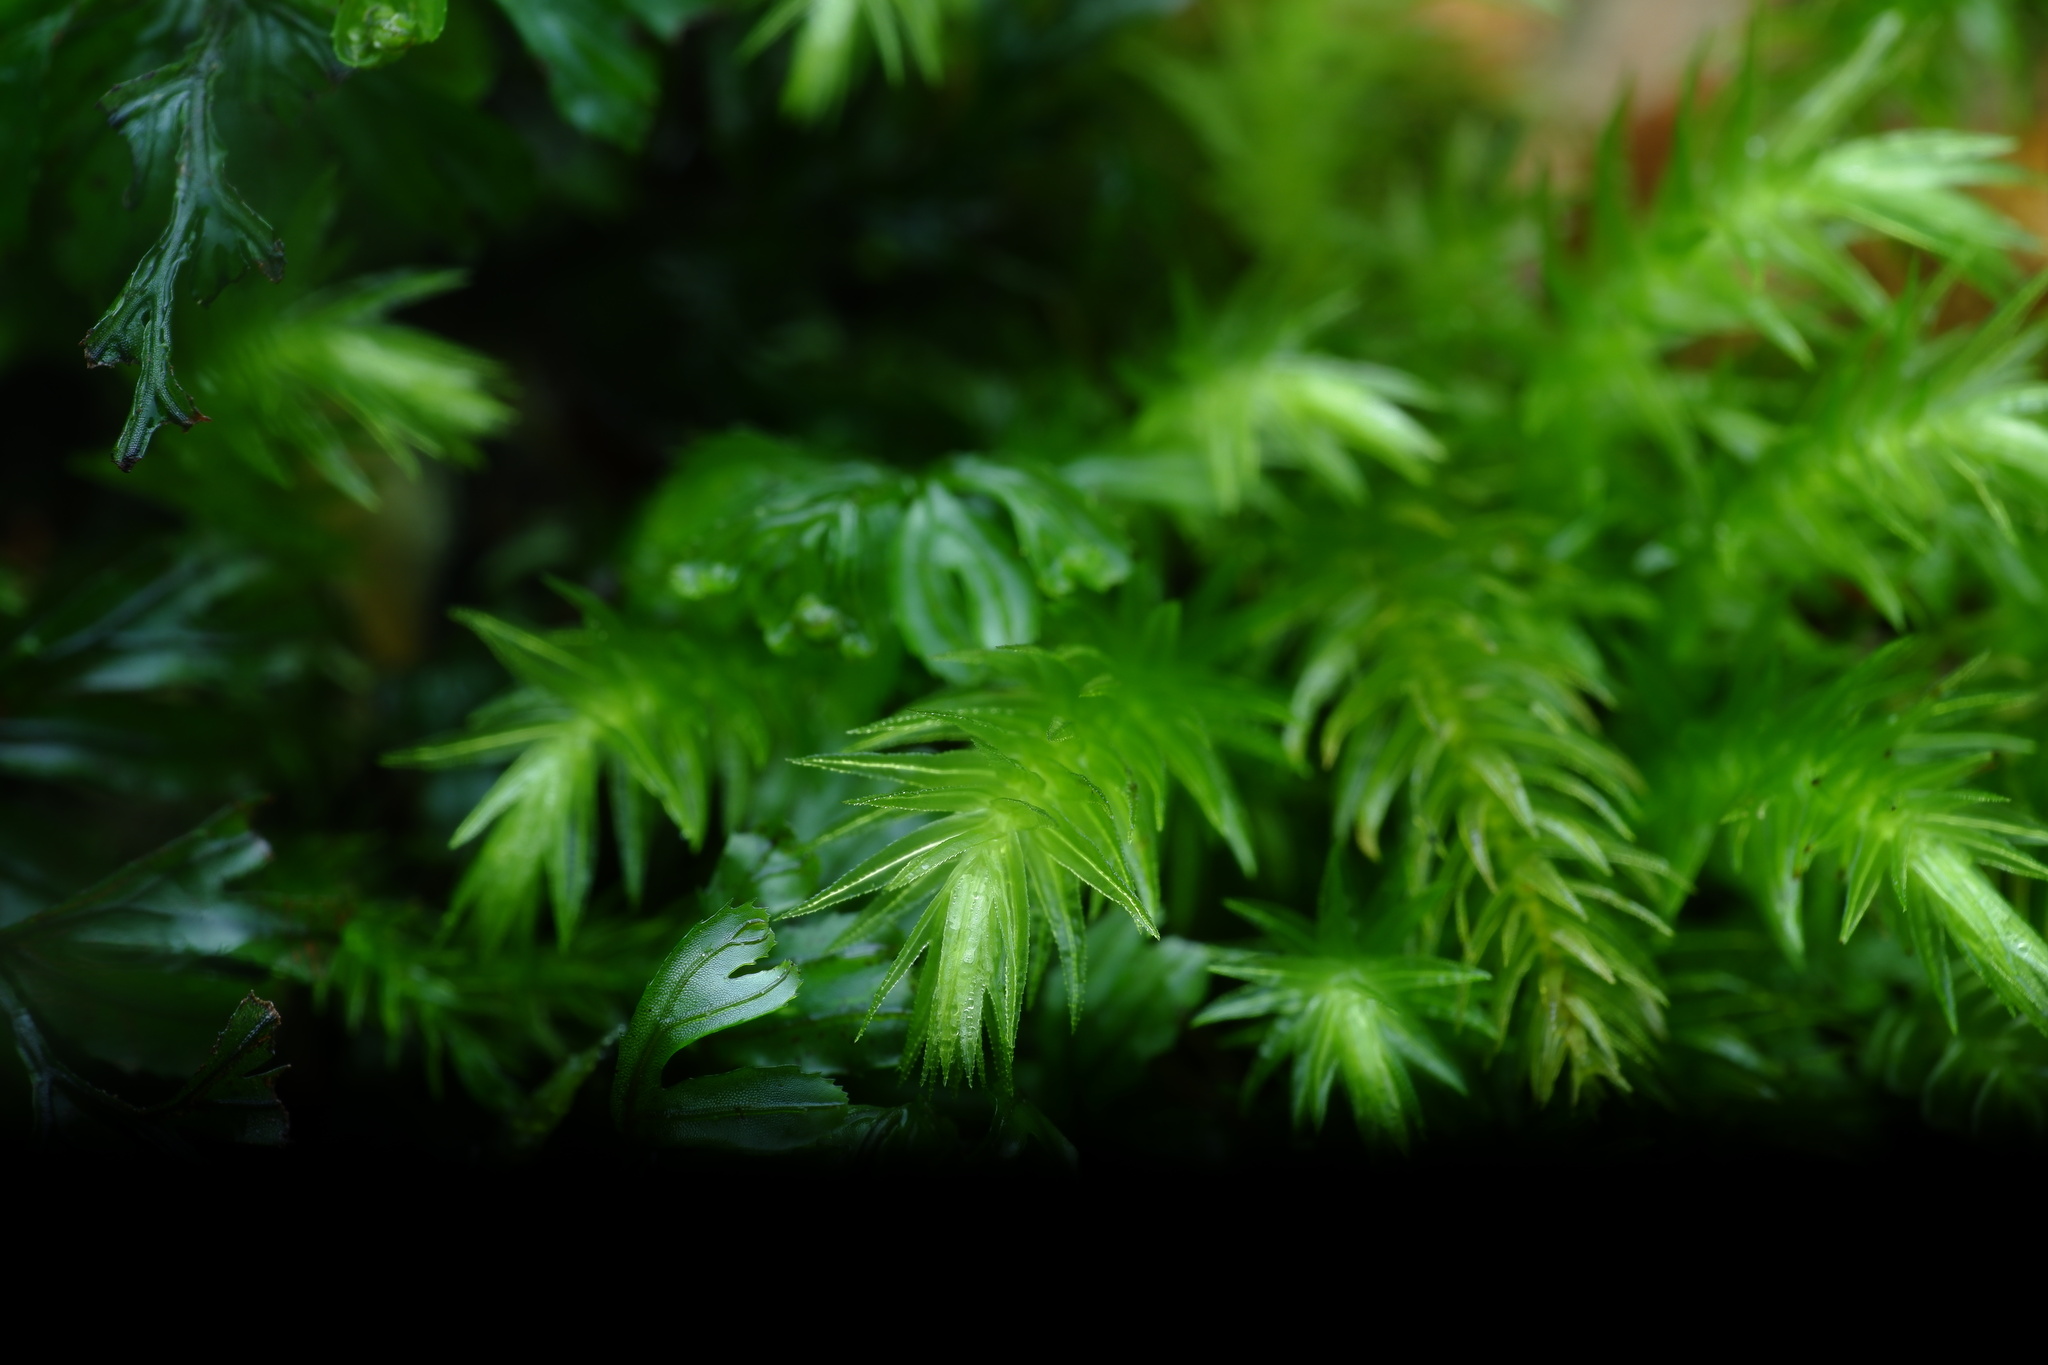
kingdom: Plantae
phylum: Bryophyta
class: Bryopsida
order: Aulacomniales
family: Aulacomniaceae
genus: Hymenodontopsis
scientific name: Hymenodontopsis mnioides
